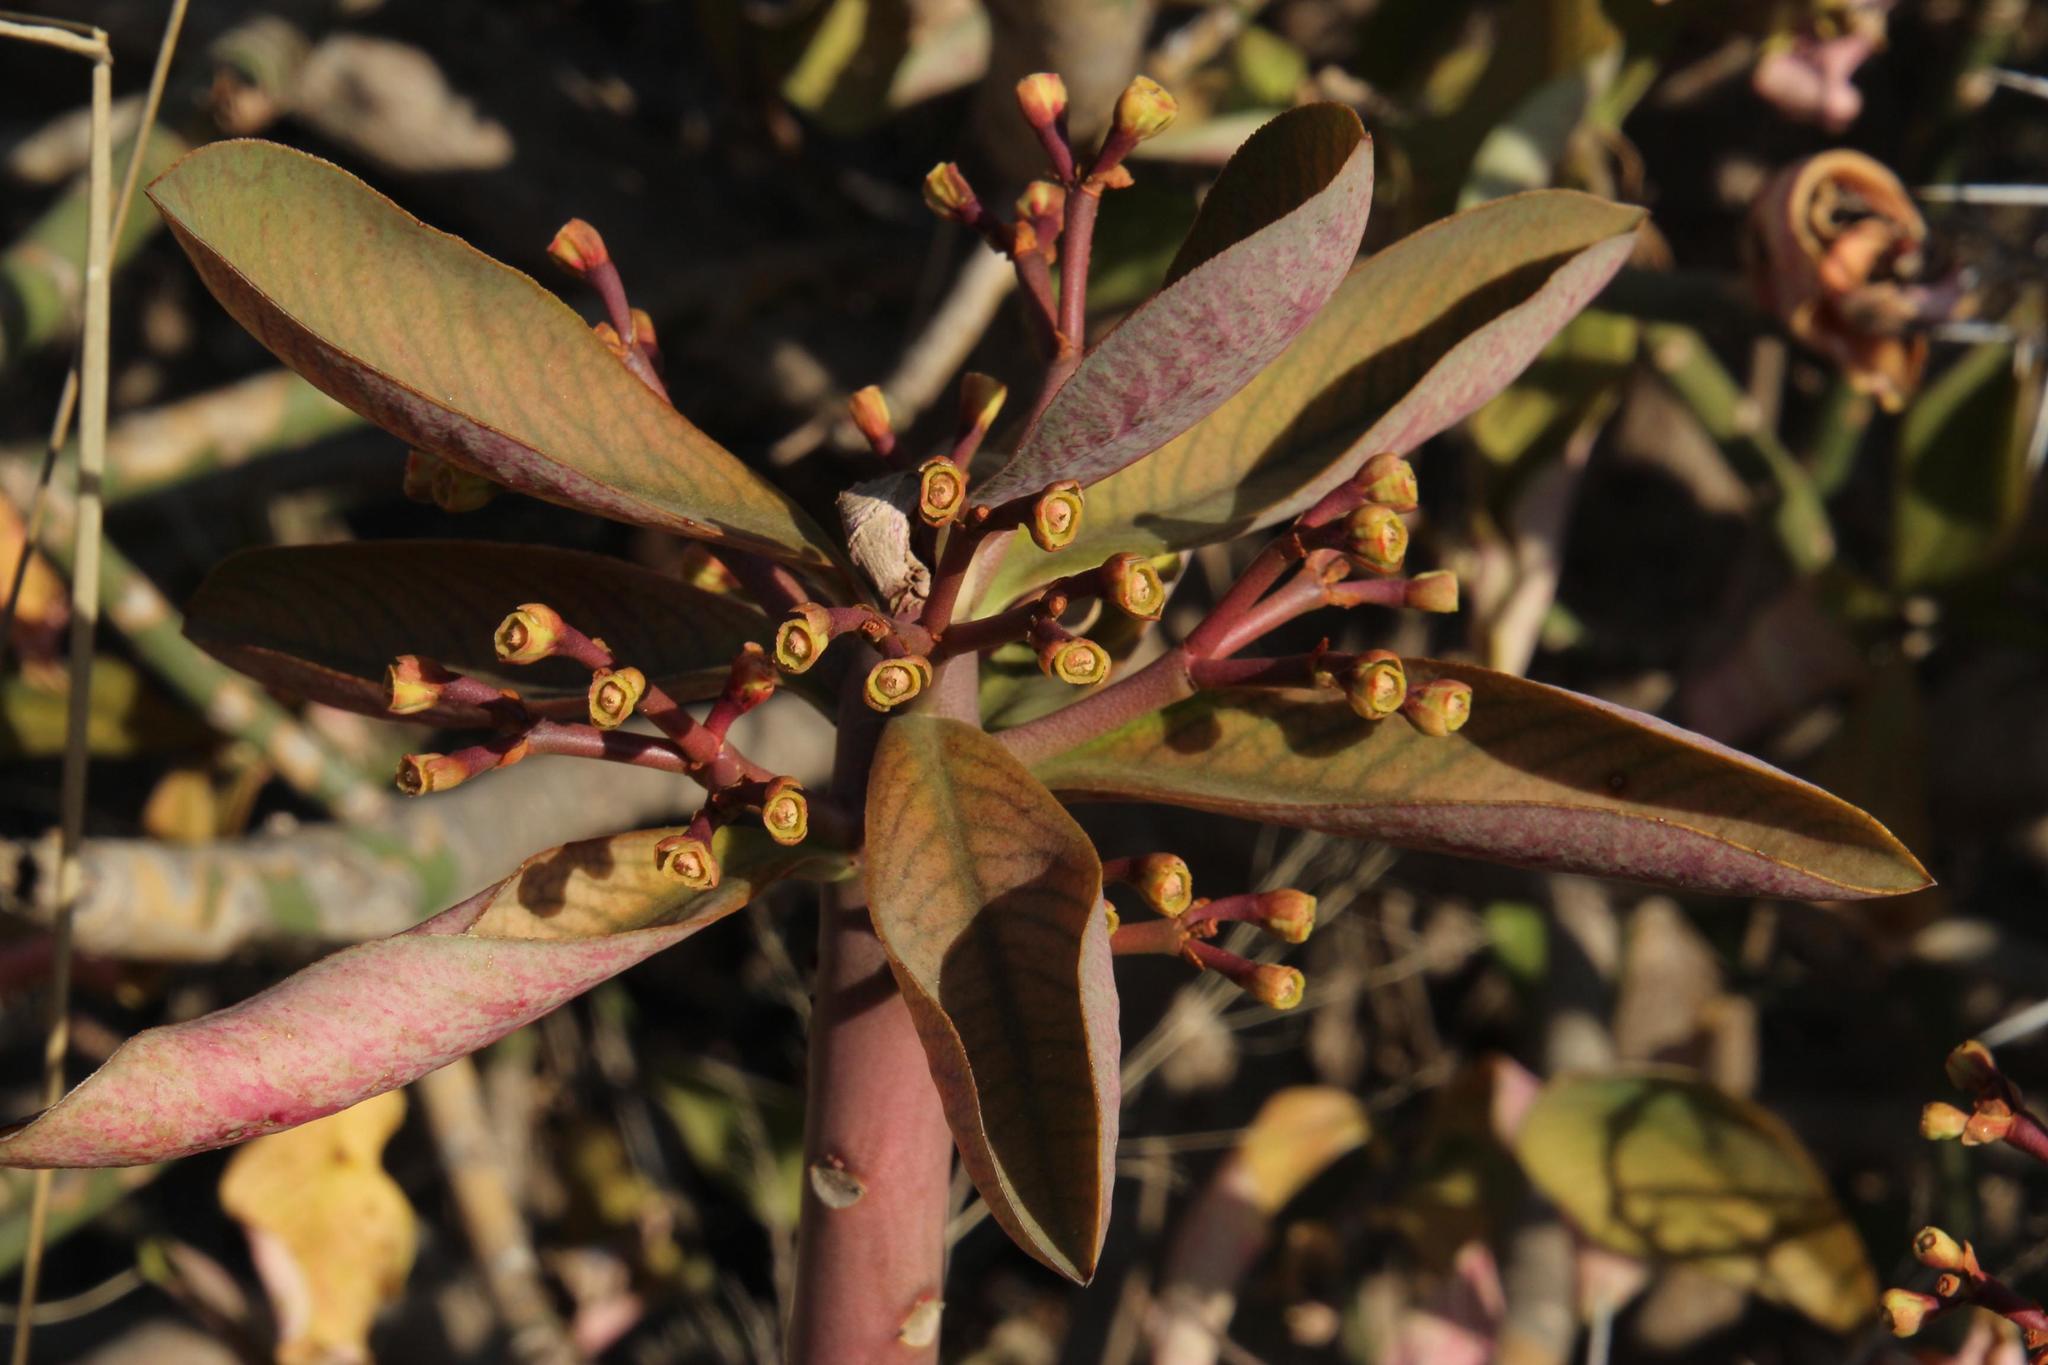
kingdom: Plantae
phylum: Tracheophyta
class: Magnoliopsida
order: Malpighiales
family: Euphorbiaceae
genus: Euphorbia
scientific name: Euphorbia cupularis
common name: Crying tree
